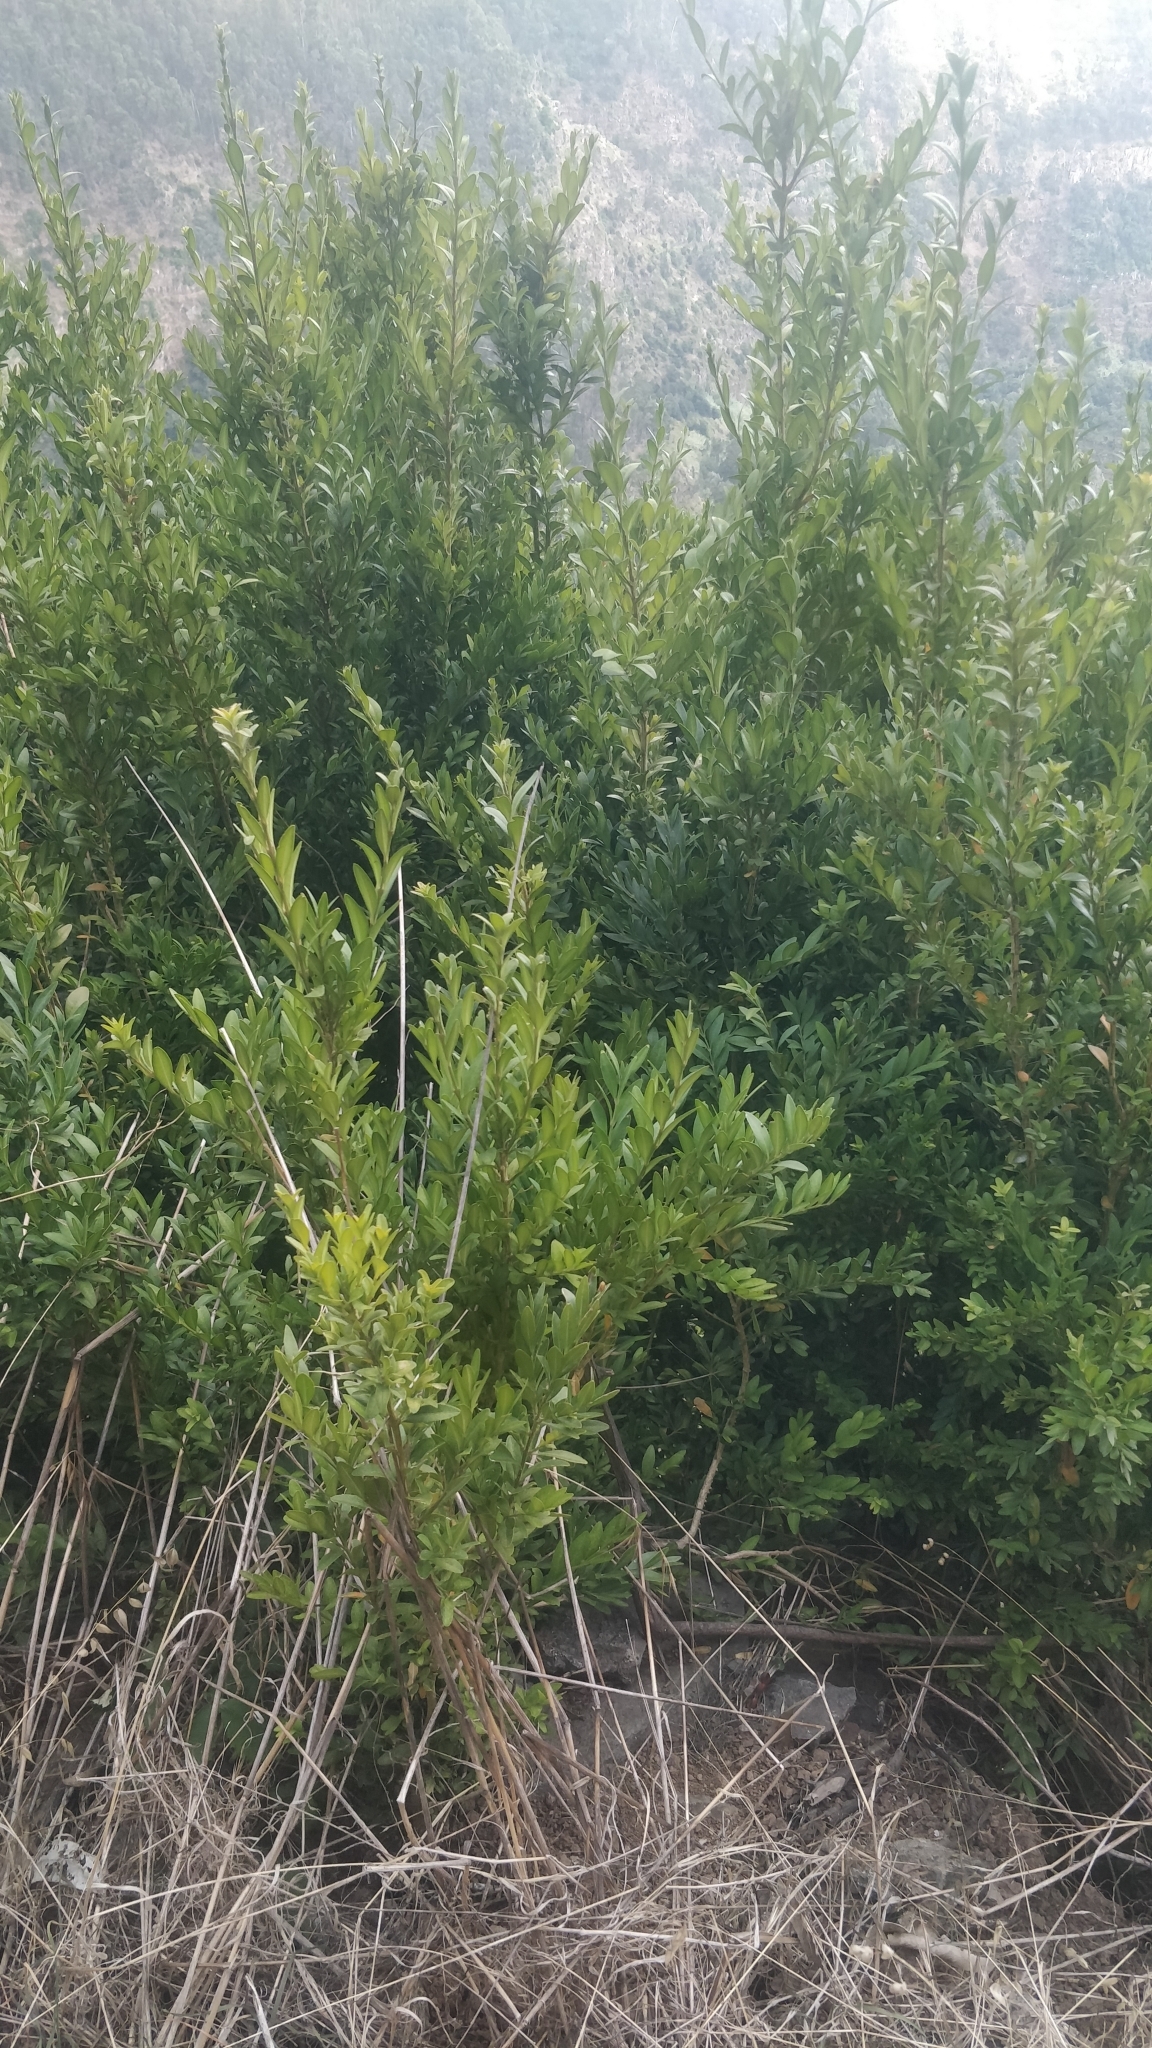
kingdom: Plantae
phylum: Tracheophyta
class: Magnoliopsida
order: Buxales
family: Buxaceae
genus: Buxus
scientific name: Buxus sempervirens
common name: Box
